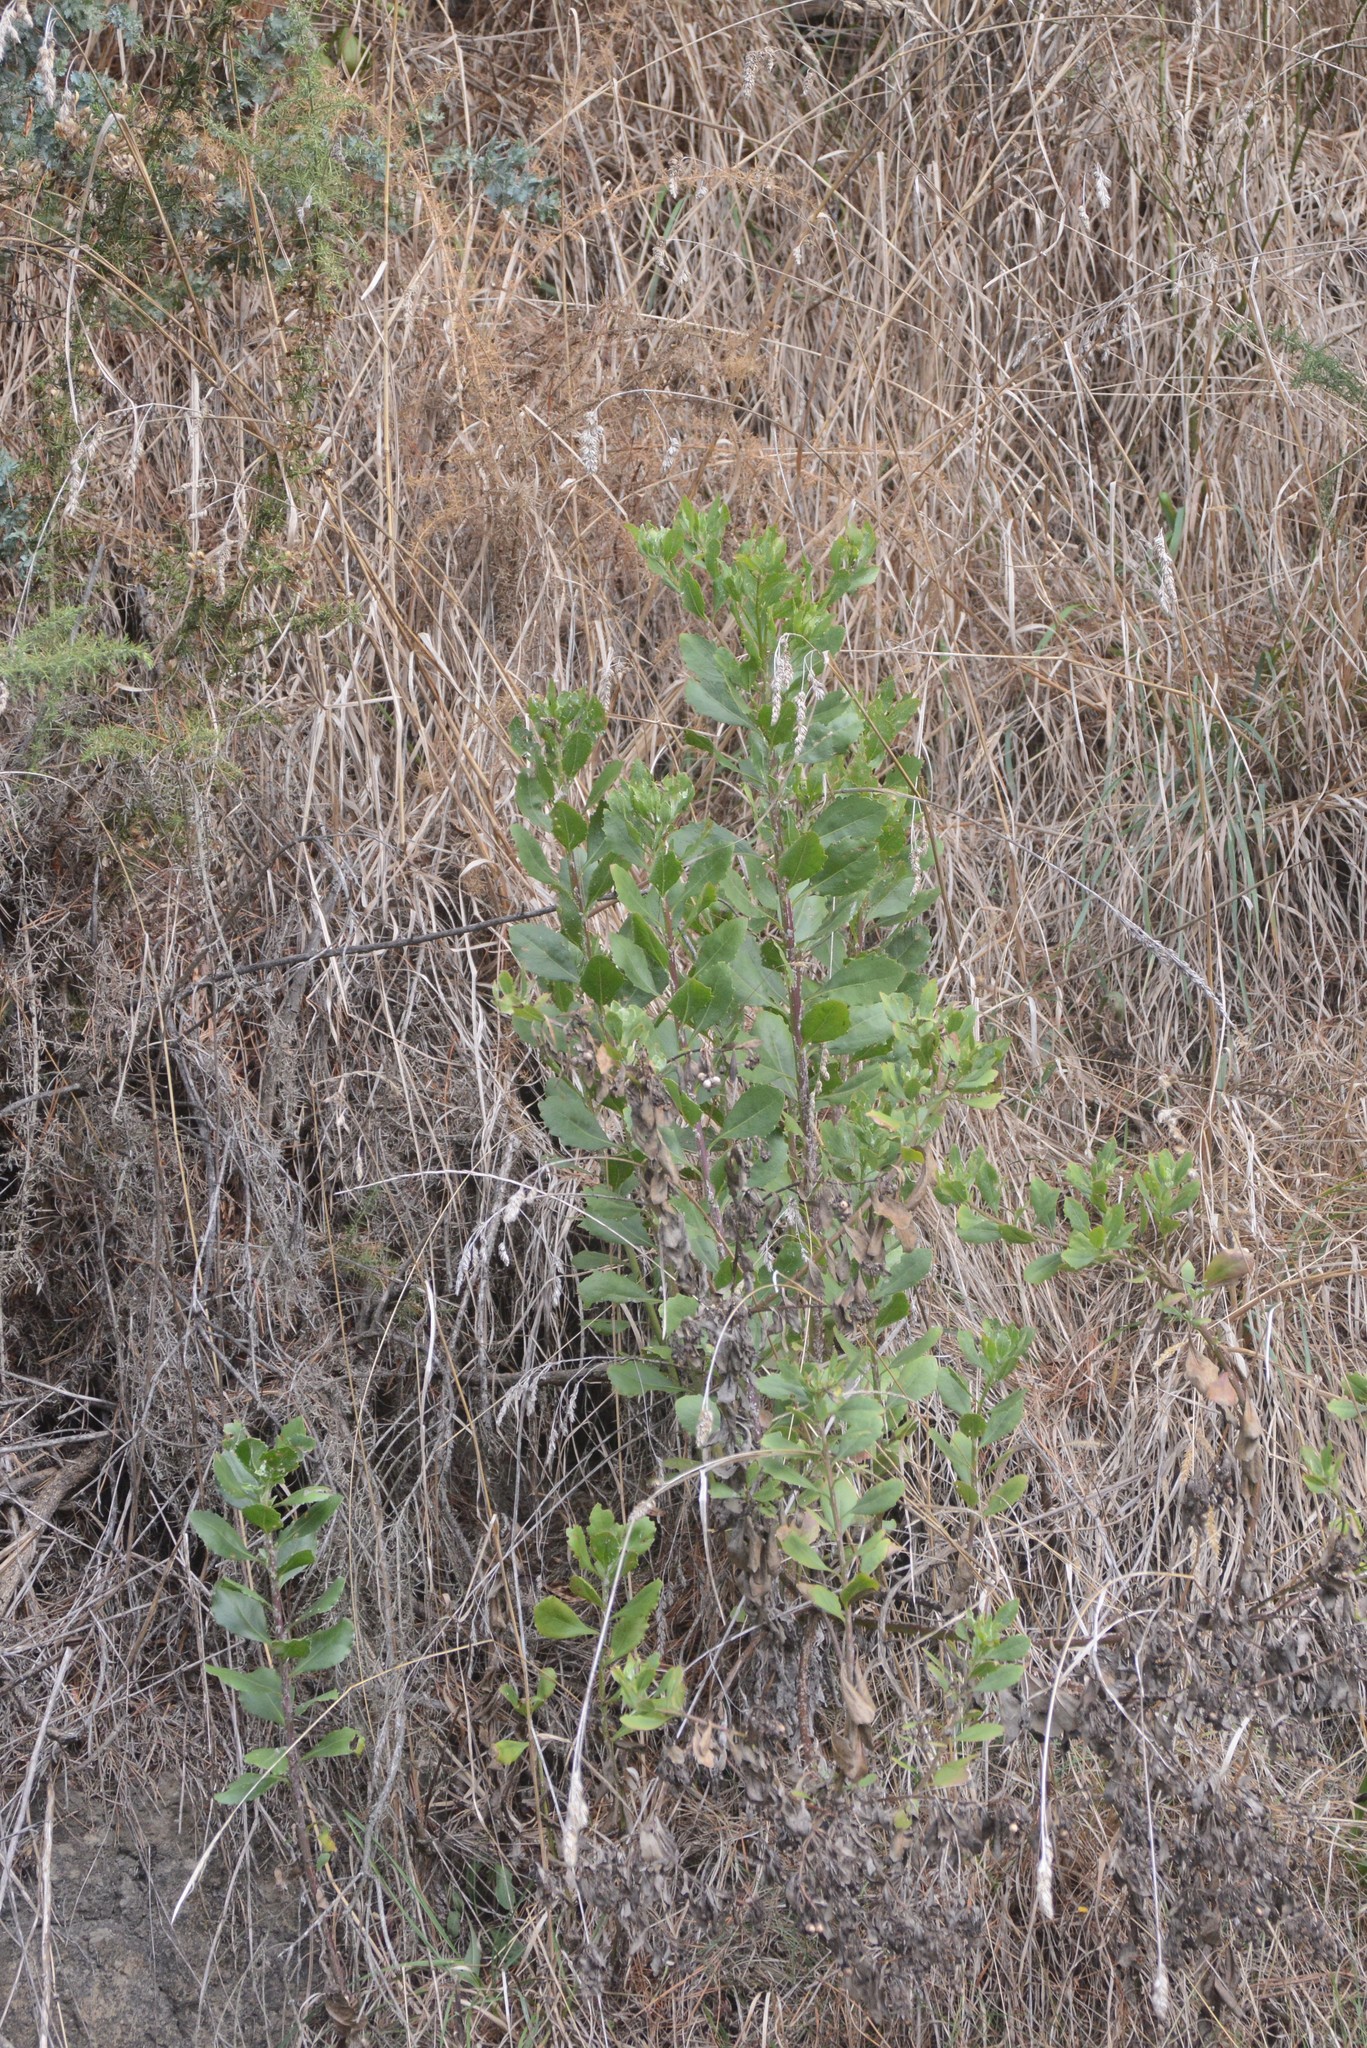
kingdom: Plantae
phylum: Tracheophyta
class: Magnoliopsida
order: Asterales
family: Asteraceae
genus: Osteospermum
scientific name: Osteospermum moniliferum
